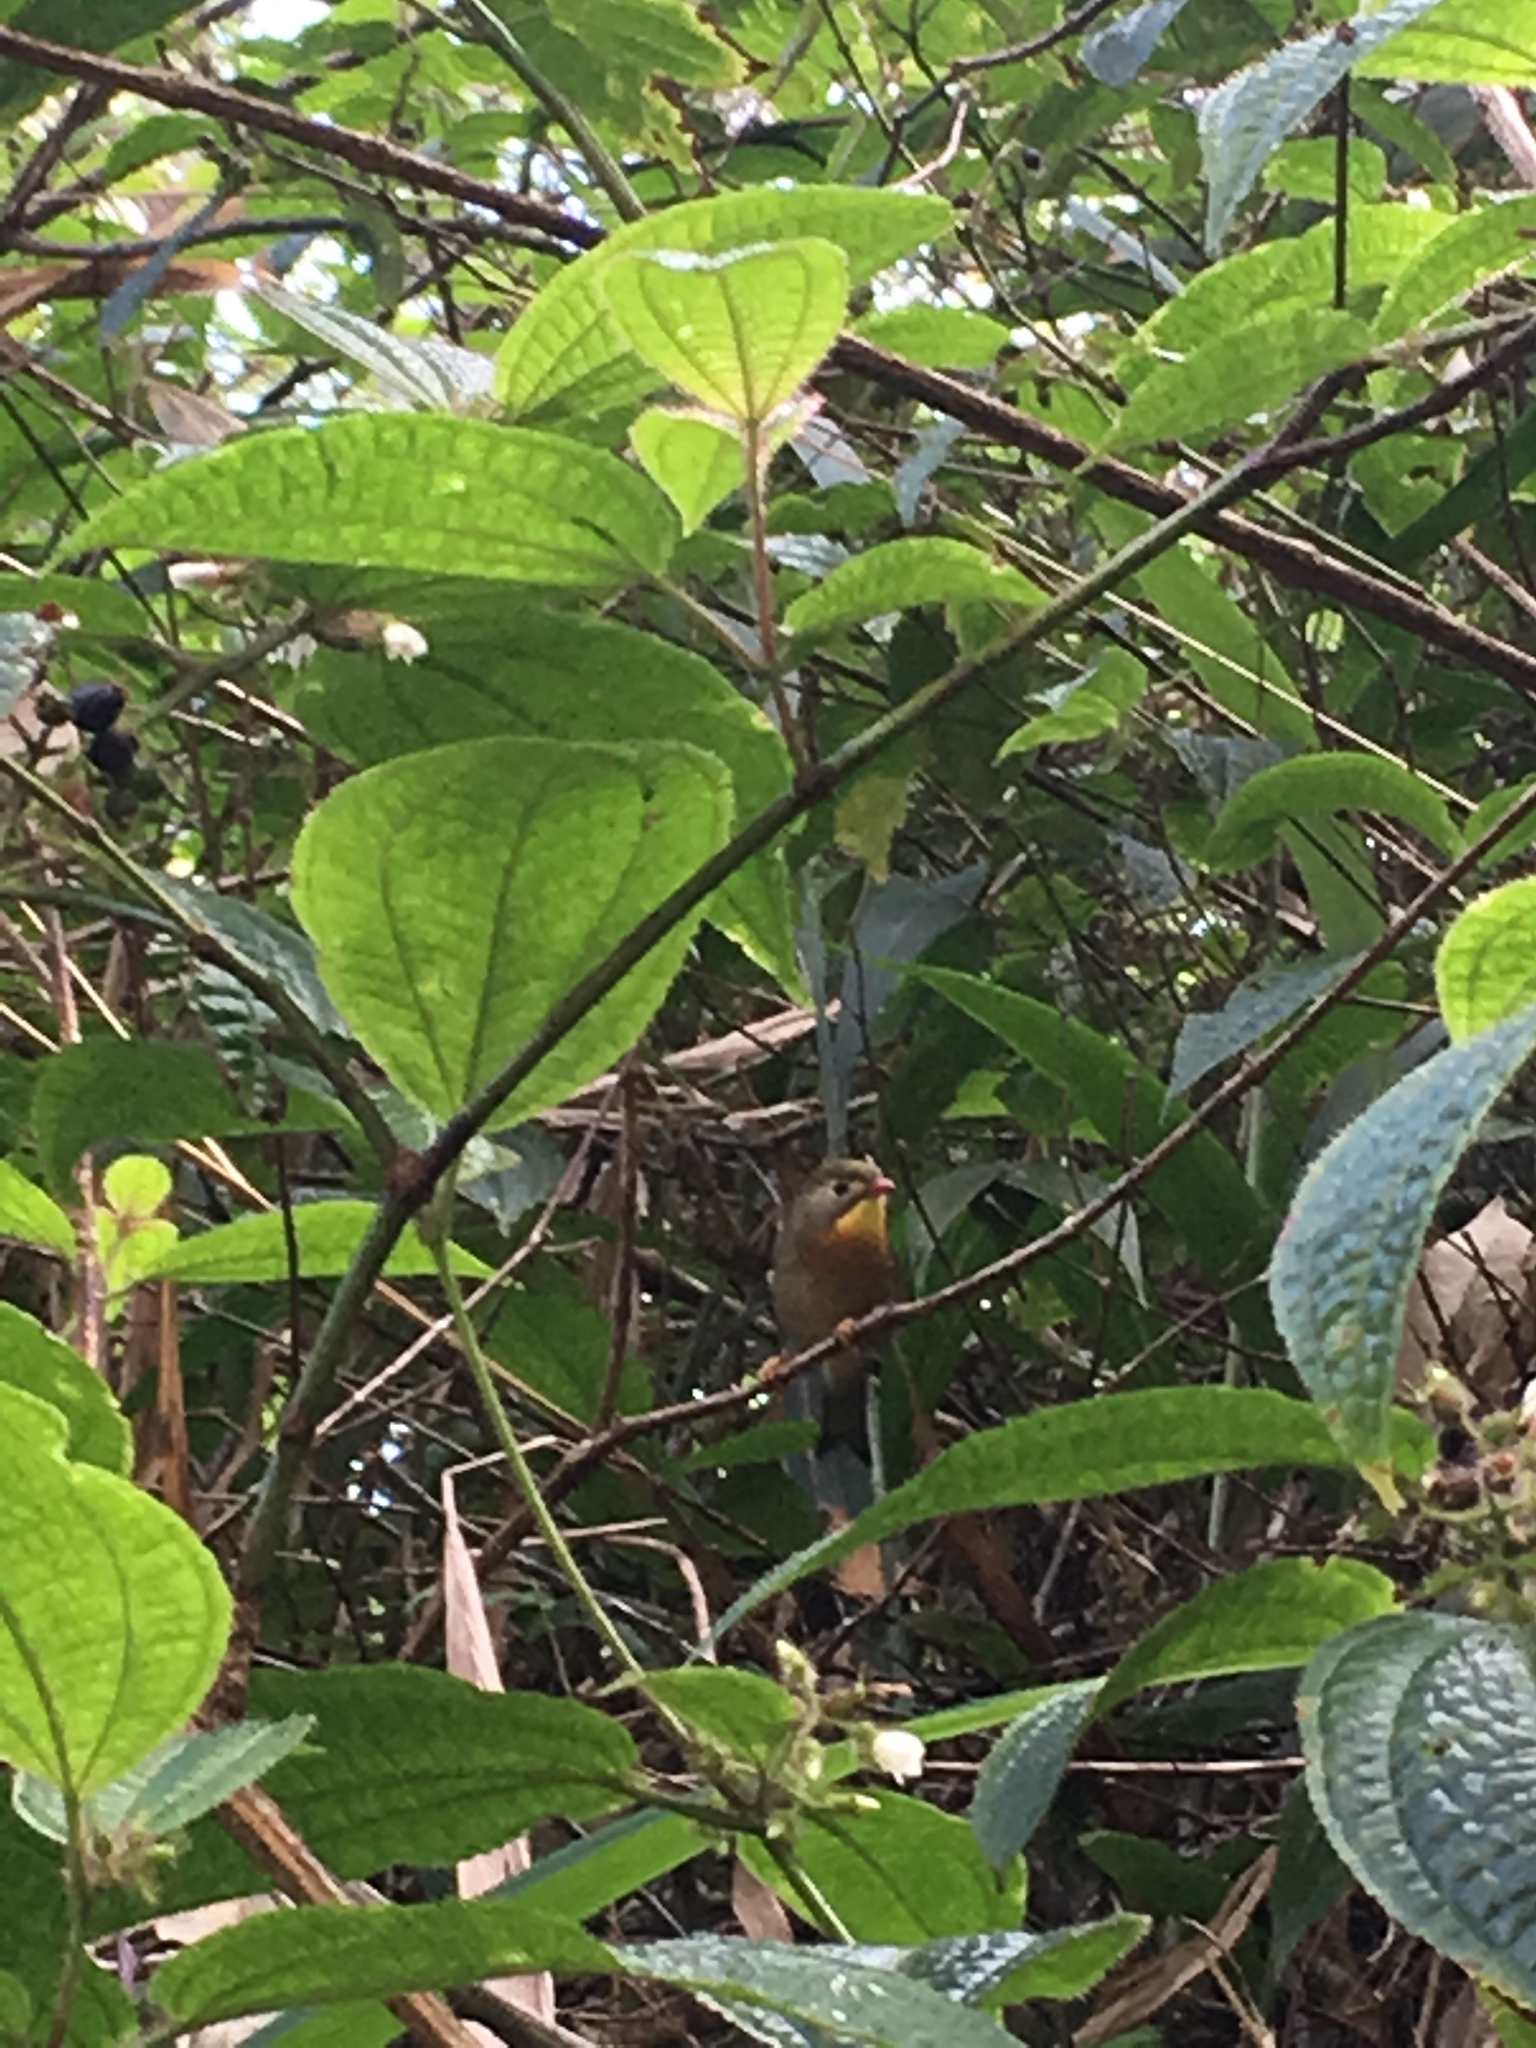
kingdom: Animalia
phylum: Chordata
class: Aves
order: Passeriformes
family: Leiothrichidae
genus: Leiothrix
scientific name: Leiothrix lutea
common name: Red-billed leiothrix
